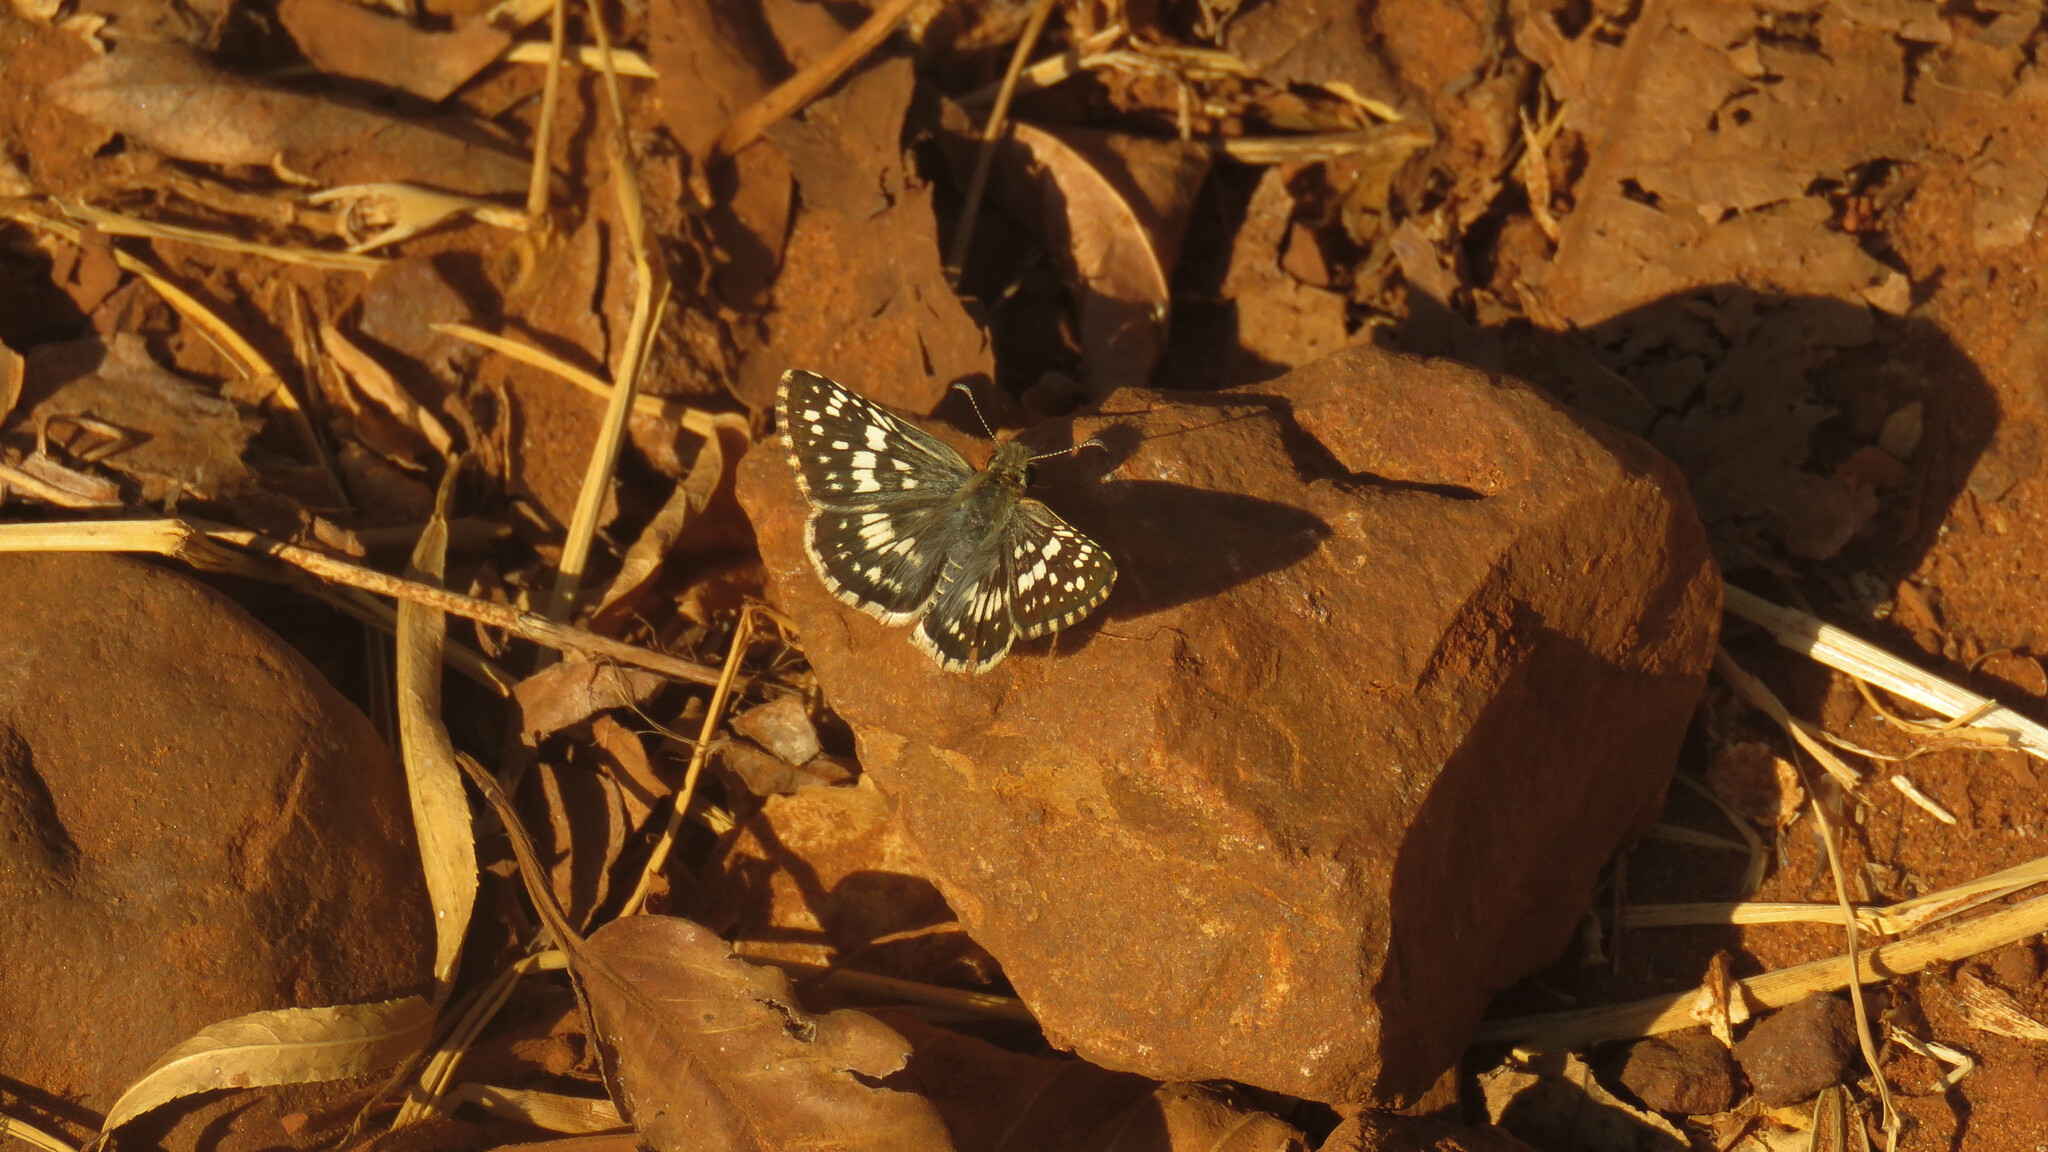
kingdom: Animalia
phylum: Arthropoda
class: Insecta
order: Lepidoptera
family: Hesperiidae
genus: Burnsius
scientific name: Burnsius orcynoides
